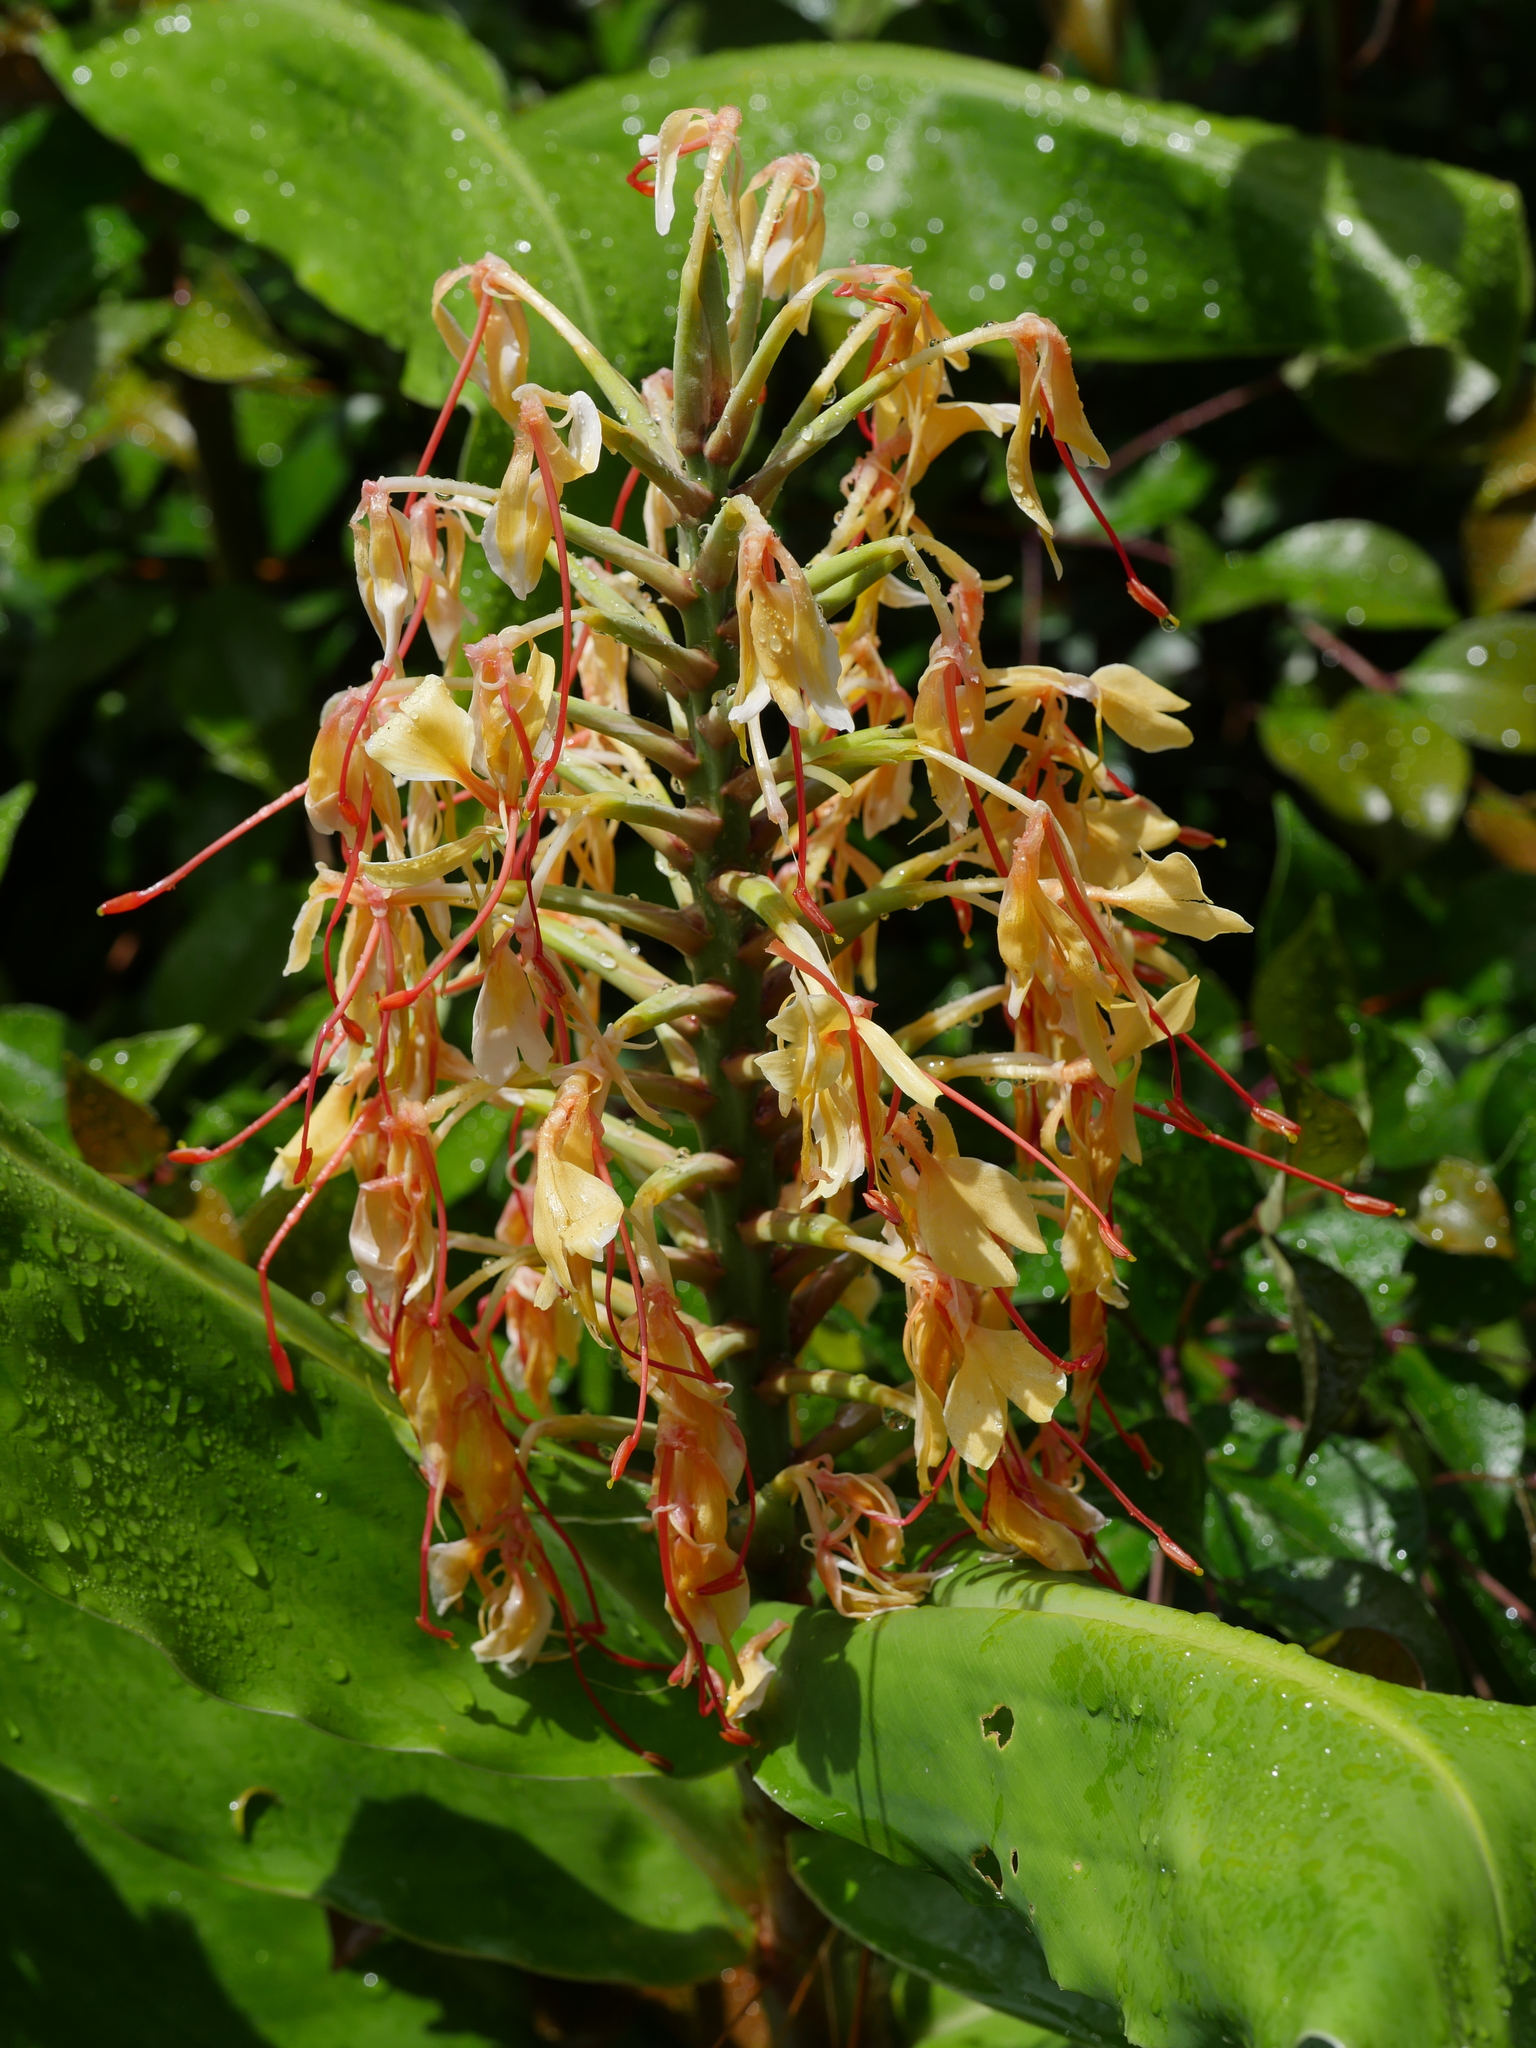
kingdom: Plantae
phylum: Tracheophyta
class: Liliopsida
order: Zingiberales
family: Zingiberaceae
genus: Hedychium
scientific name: Hedychium gardnerianum
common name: Himalayan ginger
